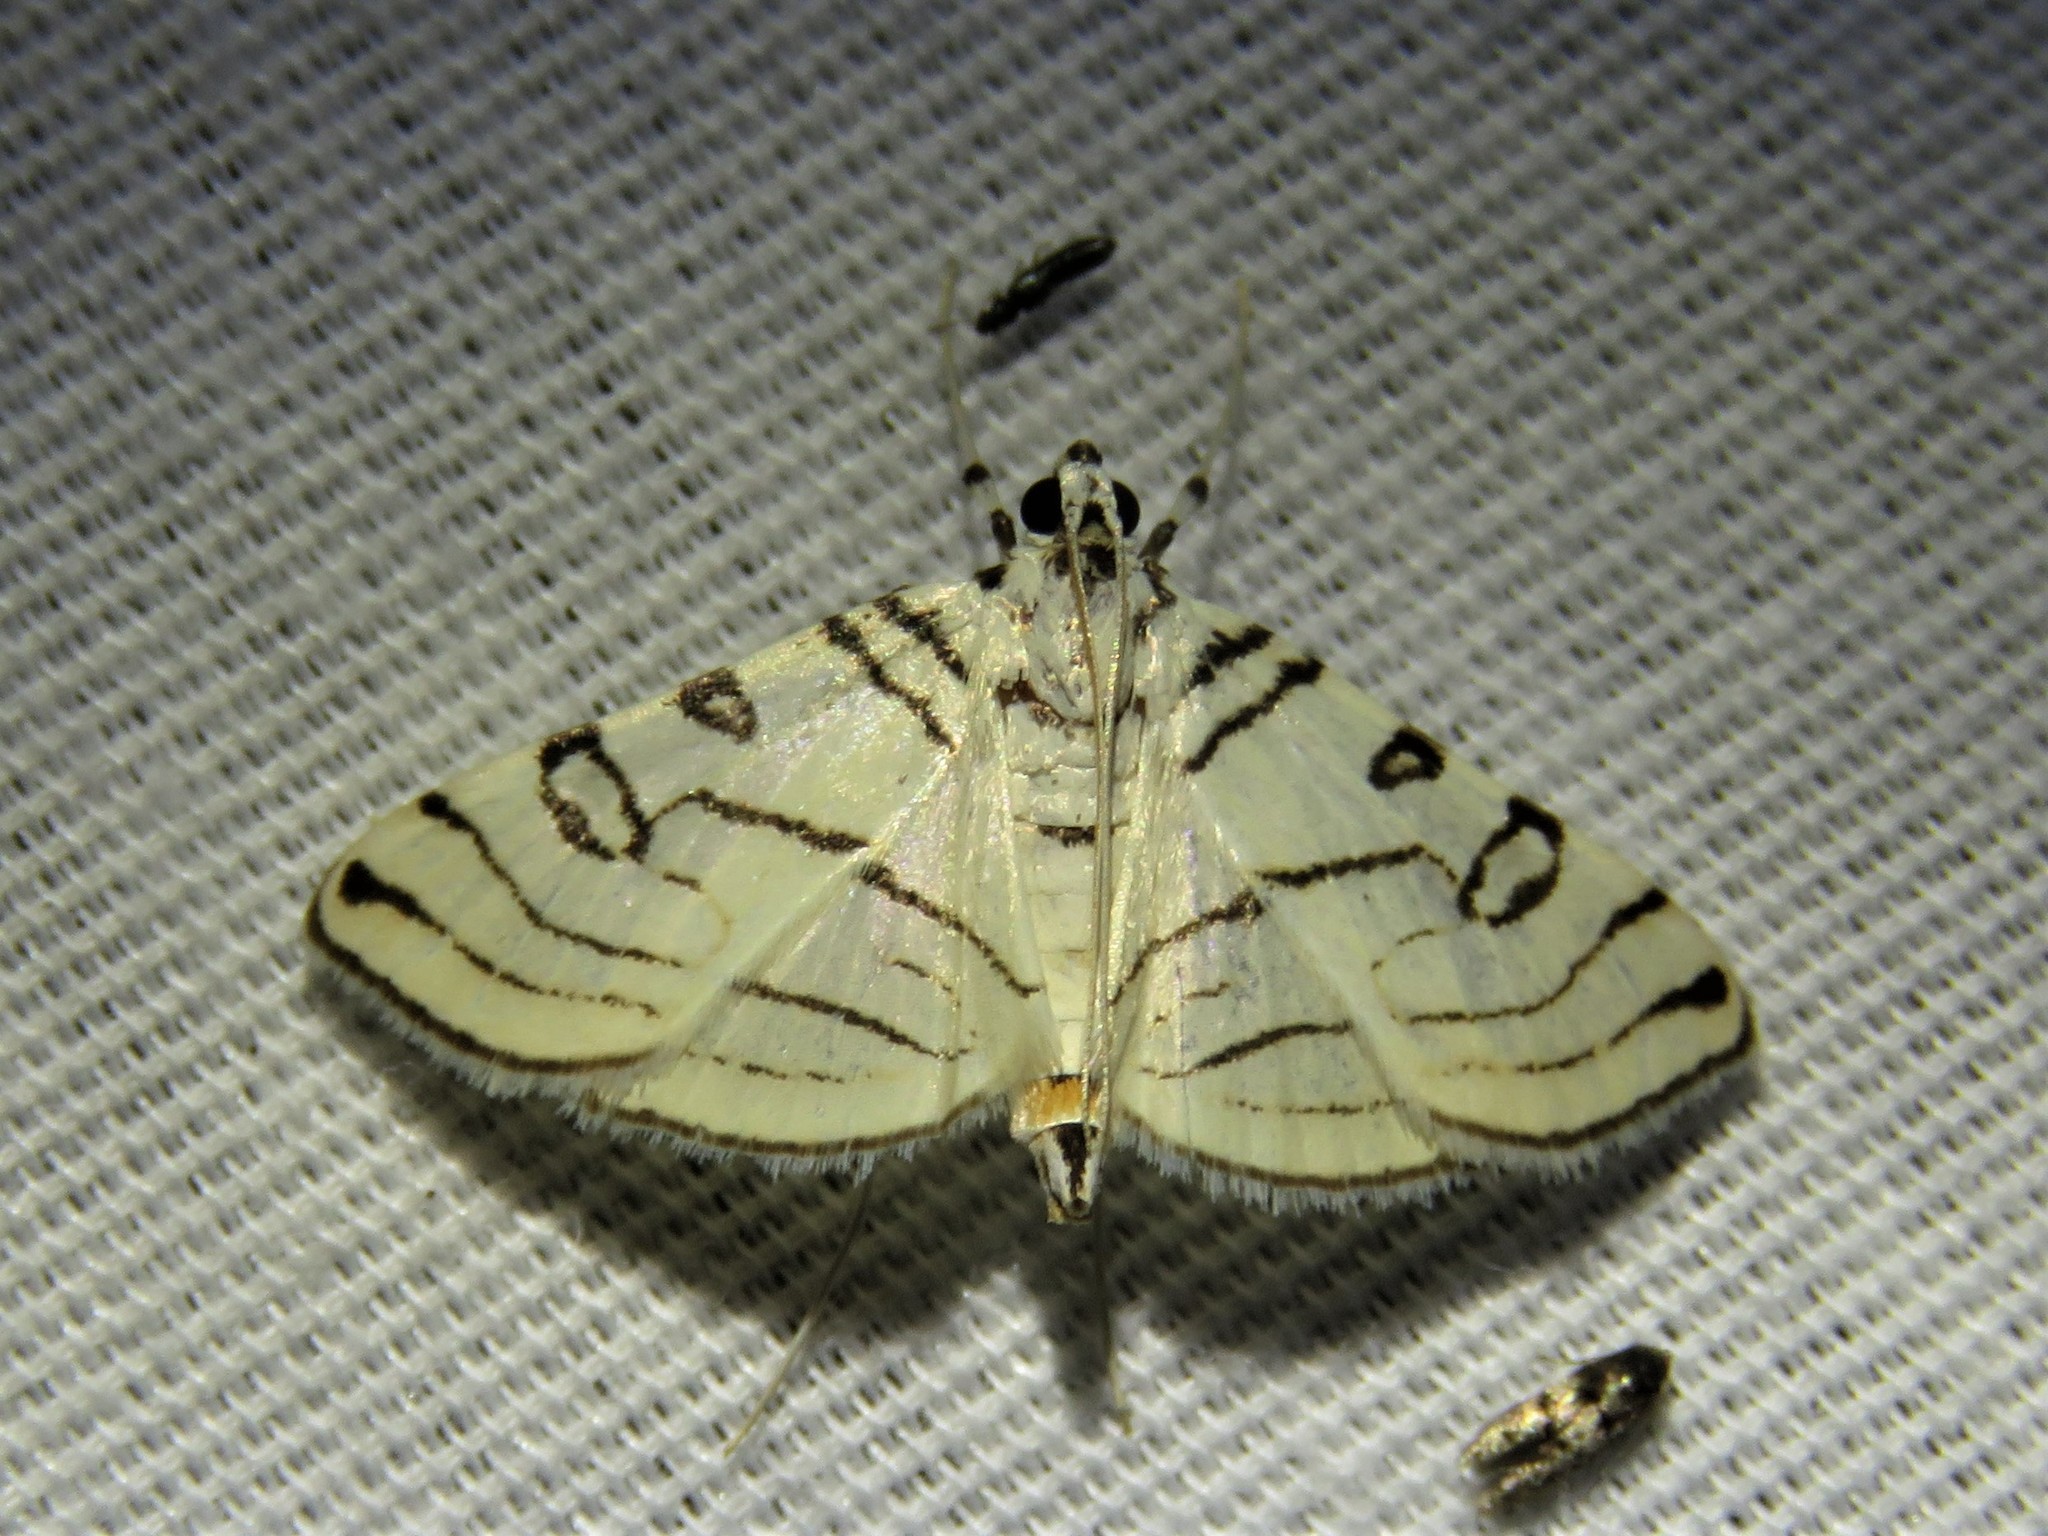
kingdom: Animalia
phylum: Arthropoda
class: Insecta
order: Lepidoptera
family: Crambidae
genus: Conchylodes
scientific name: Conchylodes concinnalis
